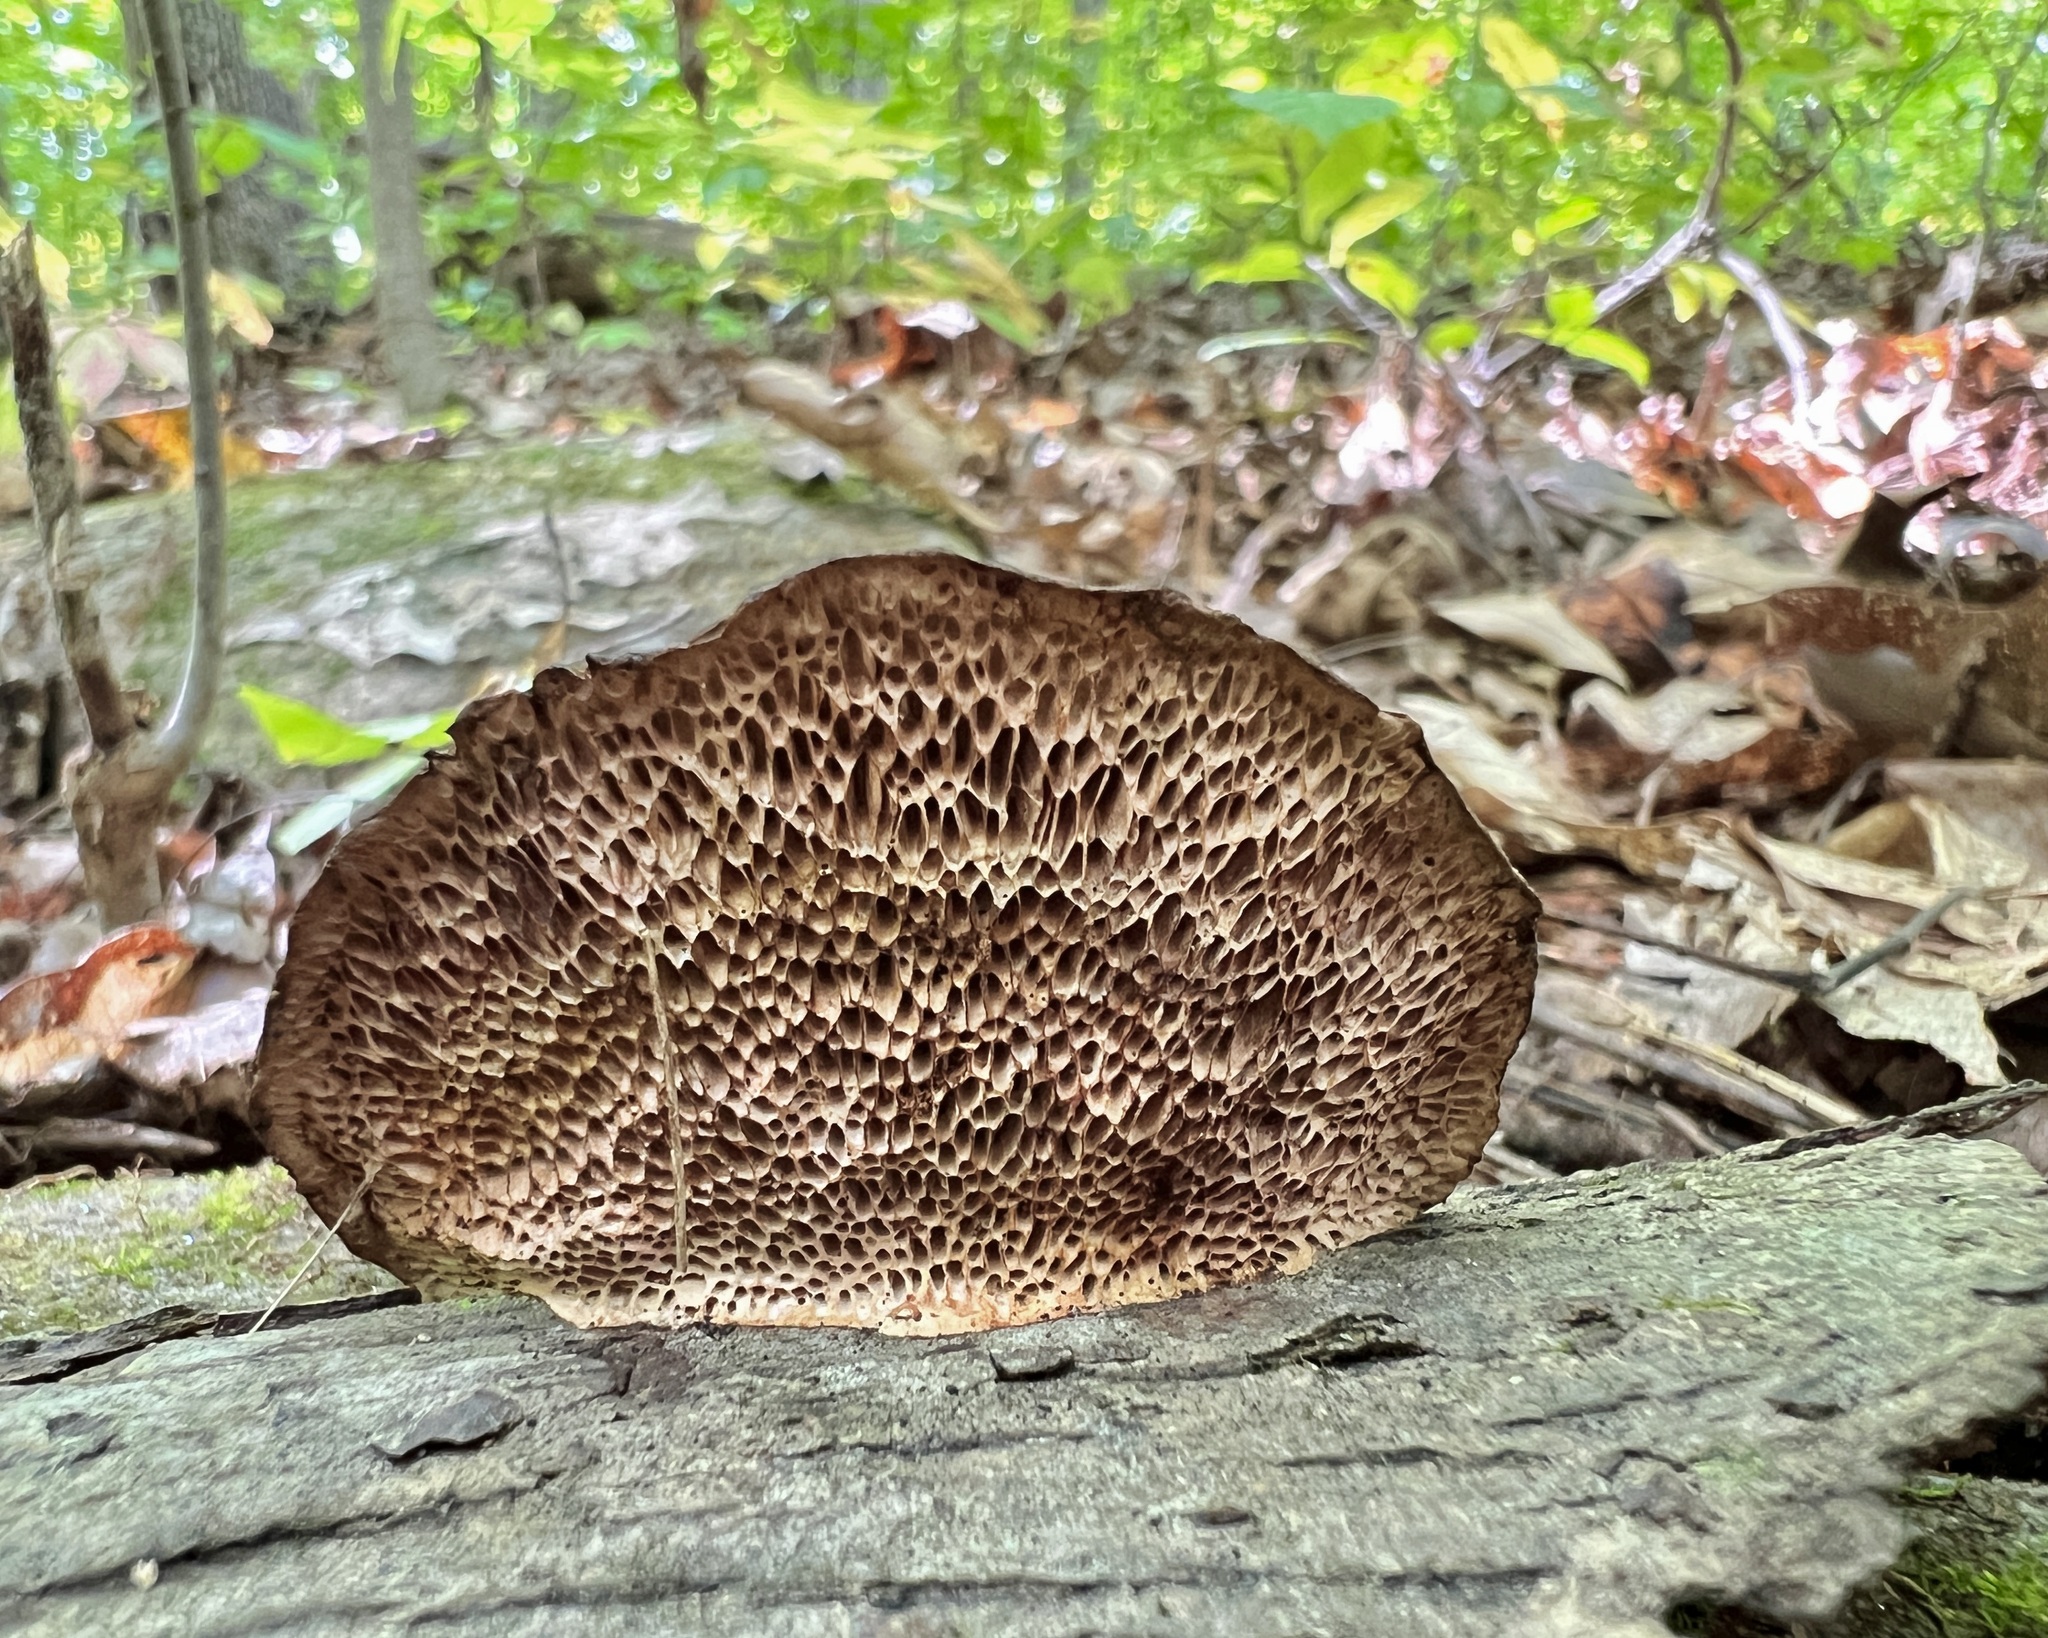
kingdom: Fungi
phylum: Basidiomycota
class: Agaricomycetes
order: Polyporales
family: Polyporaceae
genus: Daedaleopsis
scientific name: Daedaleopsis confragosa
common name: Blushing bracket
